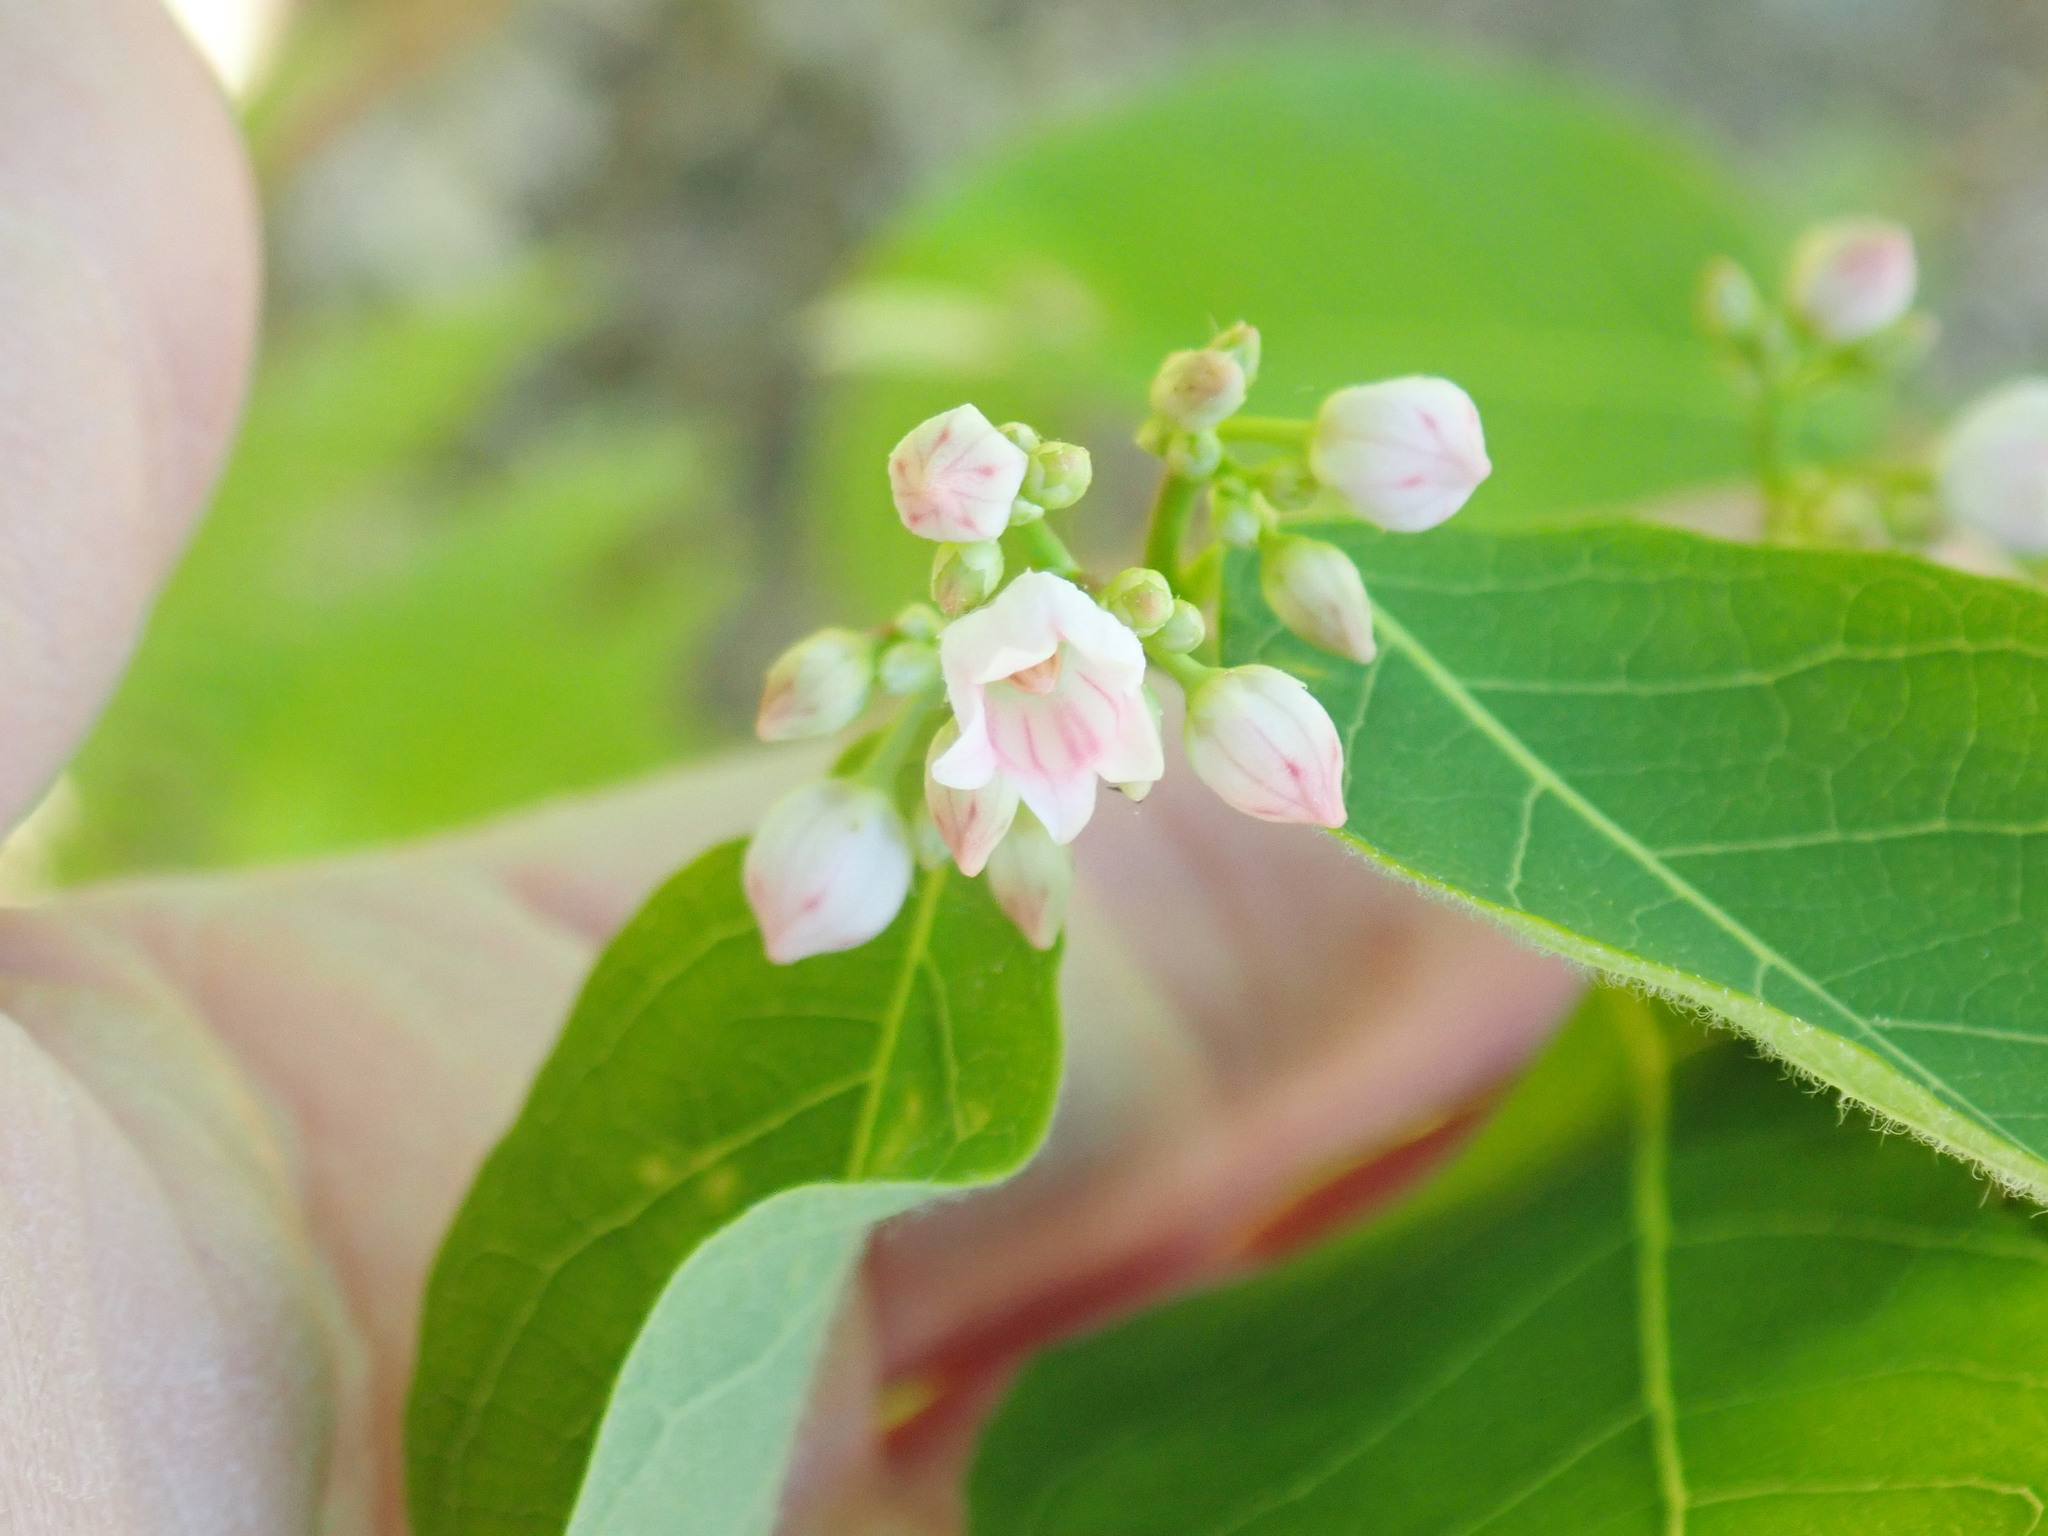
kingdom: Plantae
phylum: Tracheophyta
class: Magnoliopsida
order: Gentianales
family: Apocynaceae
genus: Apocynum
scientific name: Apocynum androsaemifolium
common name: Spreading dogbane
